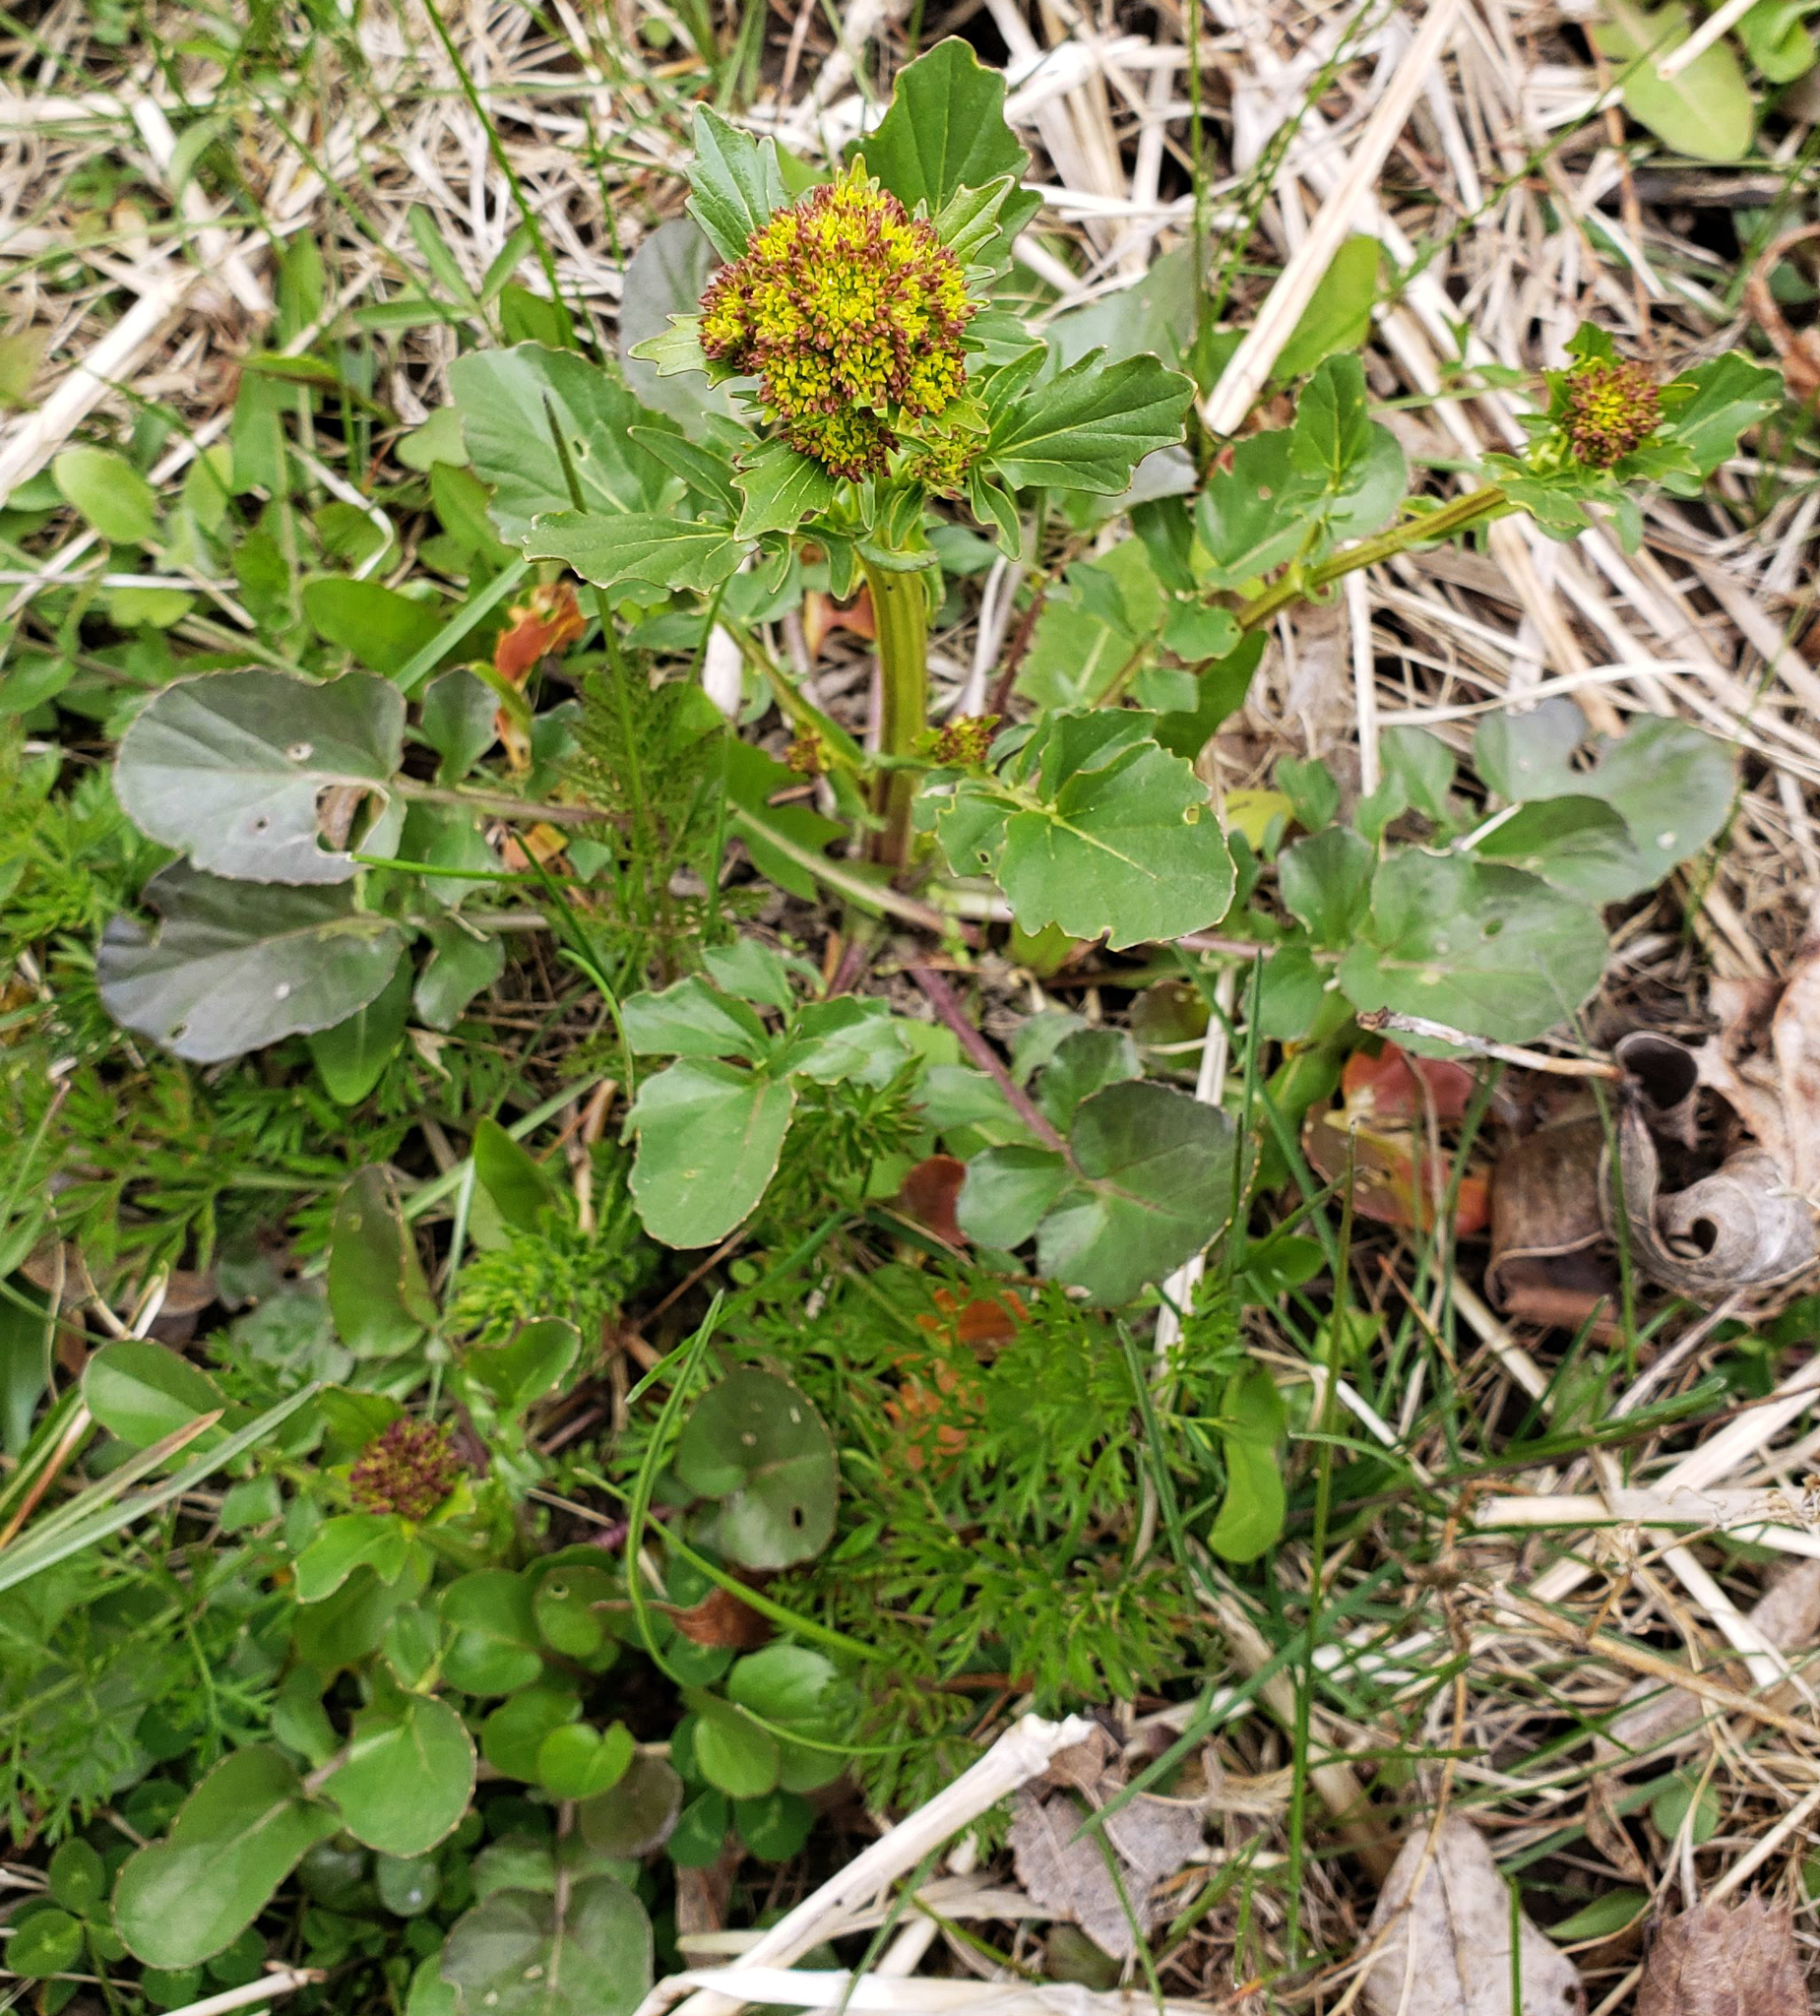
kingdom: Plantae
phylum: Tracheophyta
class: Magnoliopsida
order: Brassicales
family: Brassicaceae
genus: Barbarea
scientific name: Barbarea orthoceras
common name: American wintercress
